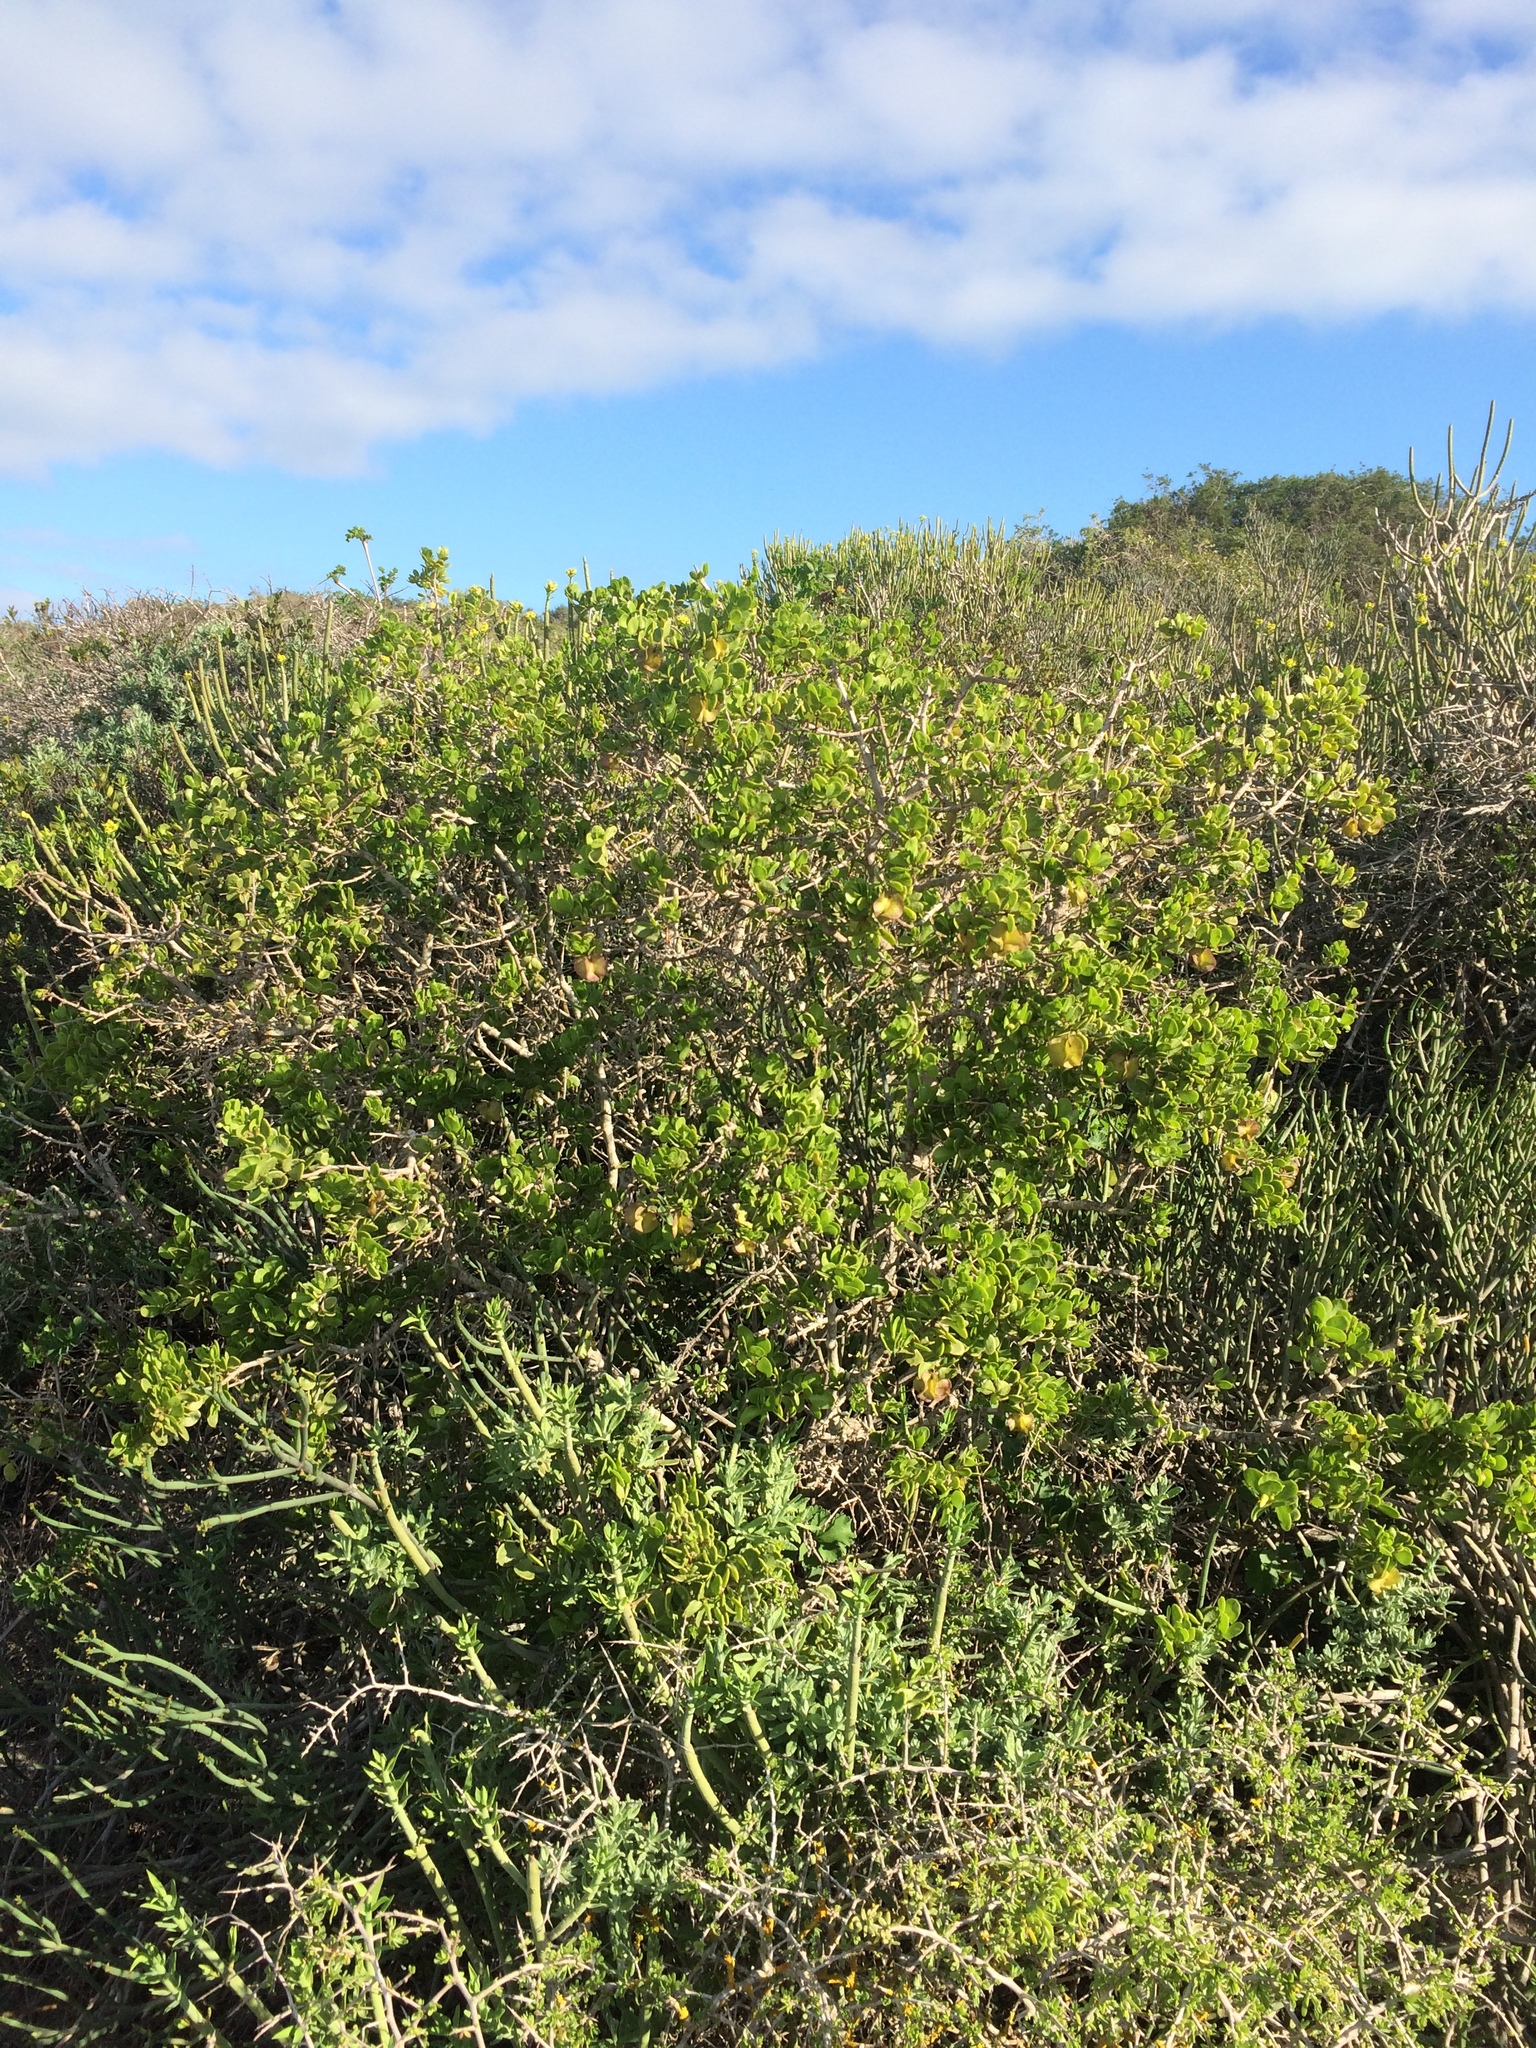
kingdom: Plantae
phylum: Tracheophyta
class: Magnoliopsida
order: Zygophyllales
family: Zygophyllaceae
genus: Roepera
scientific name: Roepera morgsana
